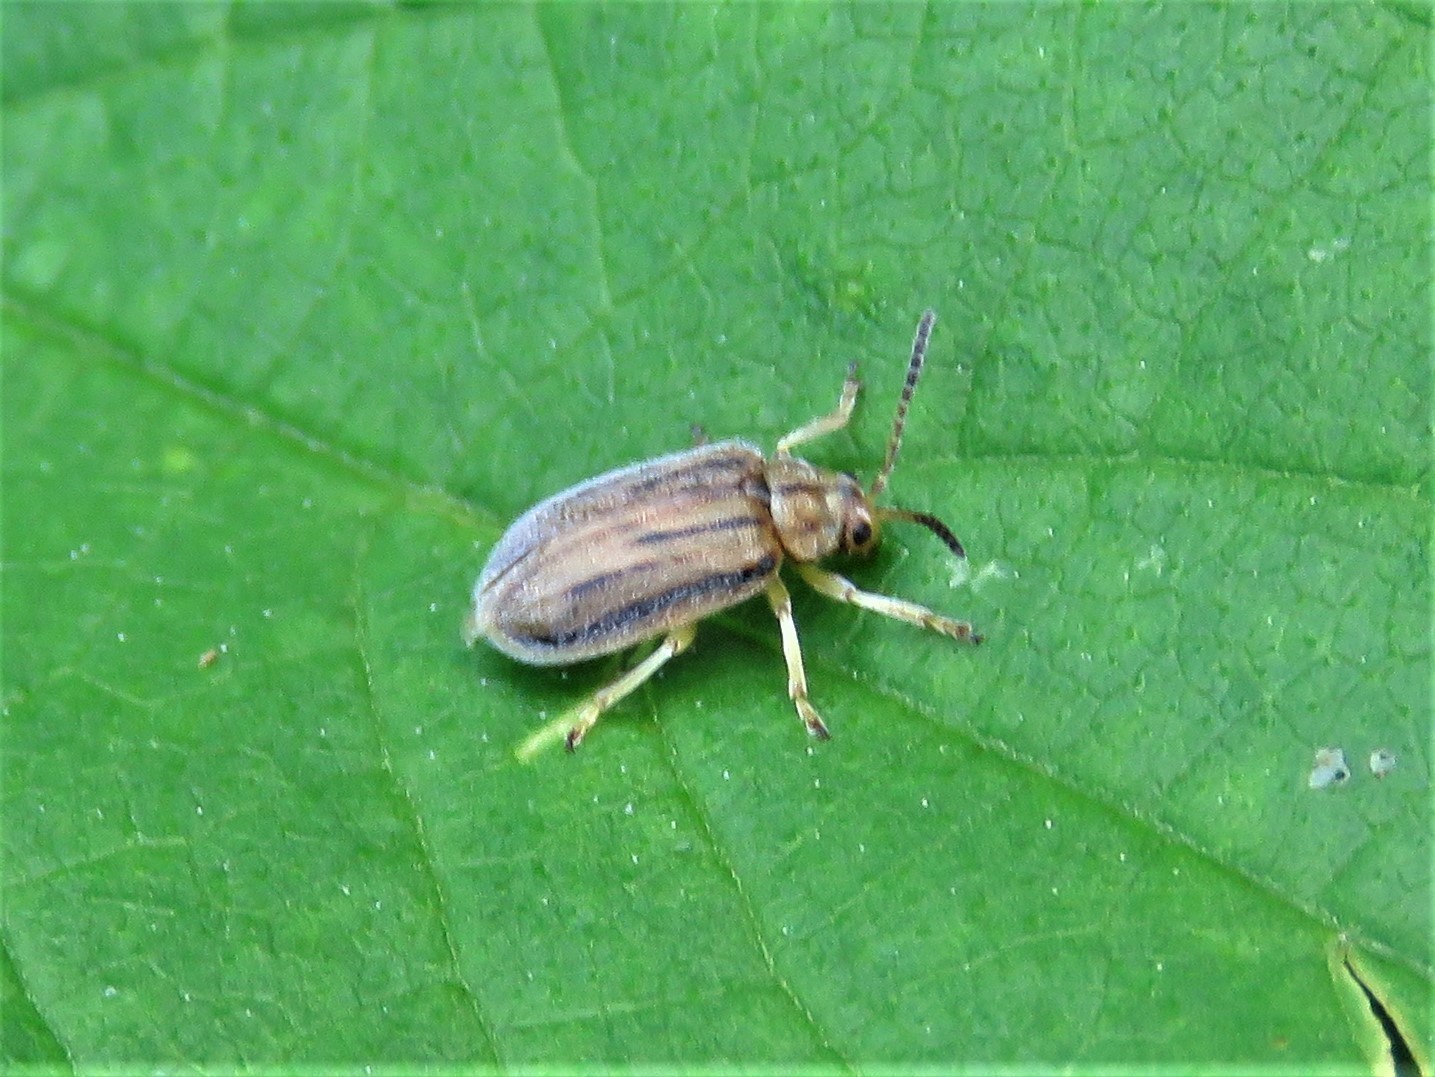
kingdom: Animalia
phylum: Arthropoda
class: Insecta
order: Coleoptera
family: Chrysomelidae
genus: Ophraella
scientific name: Ophraella communa
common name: Ragweed leaf beetle
